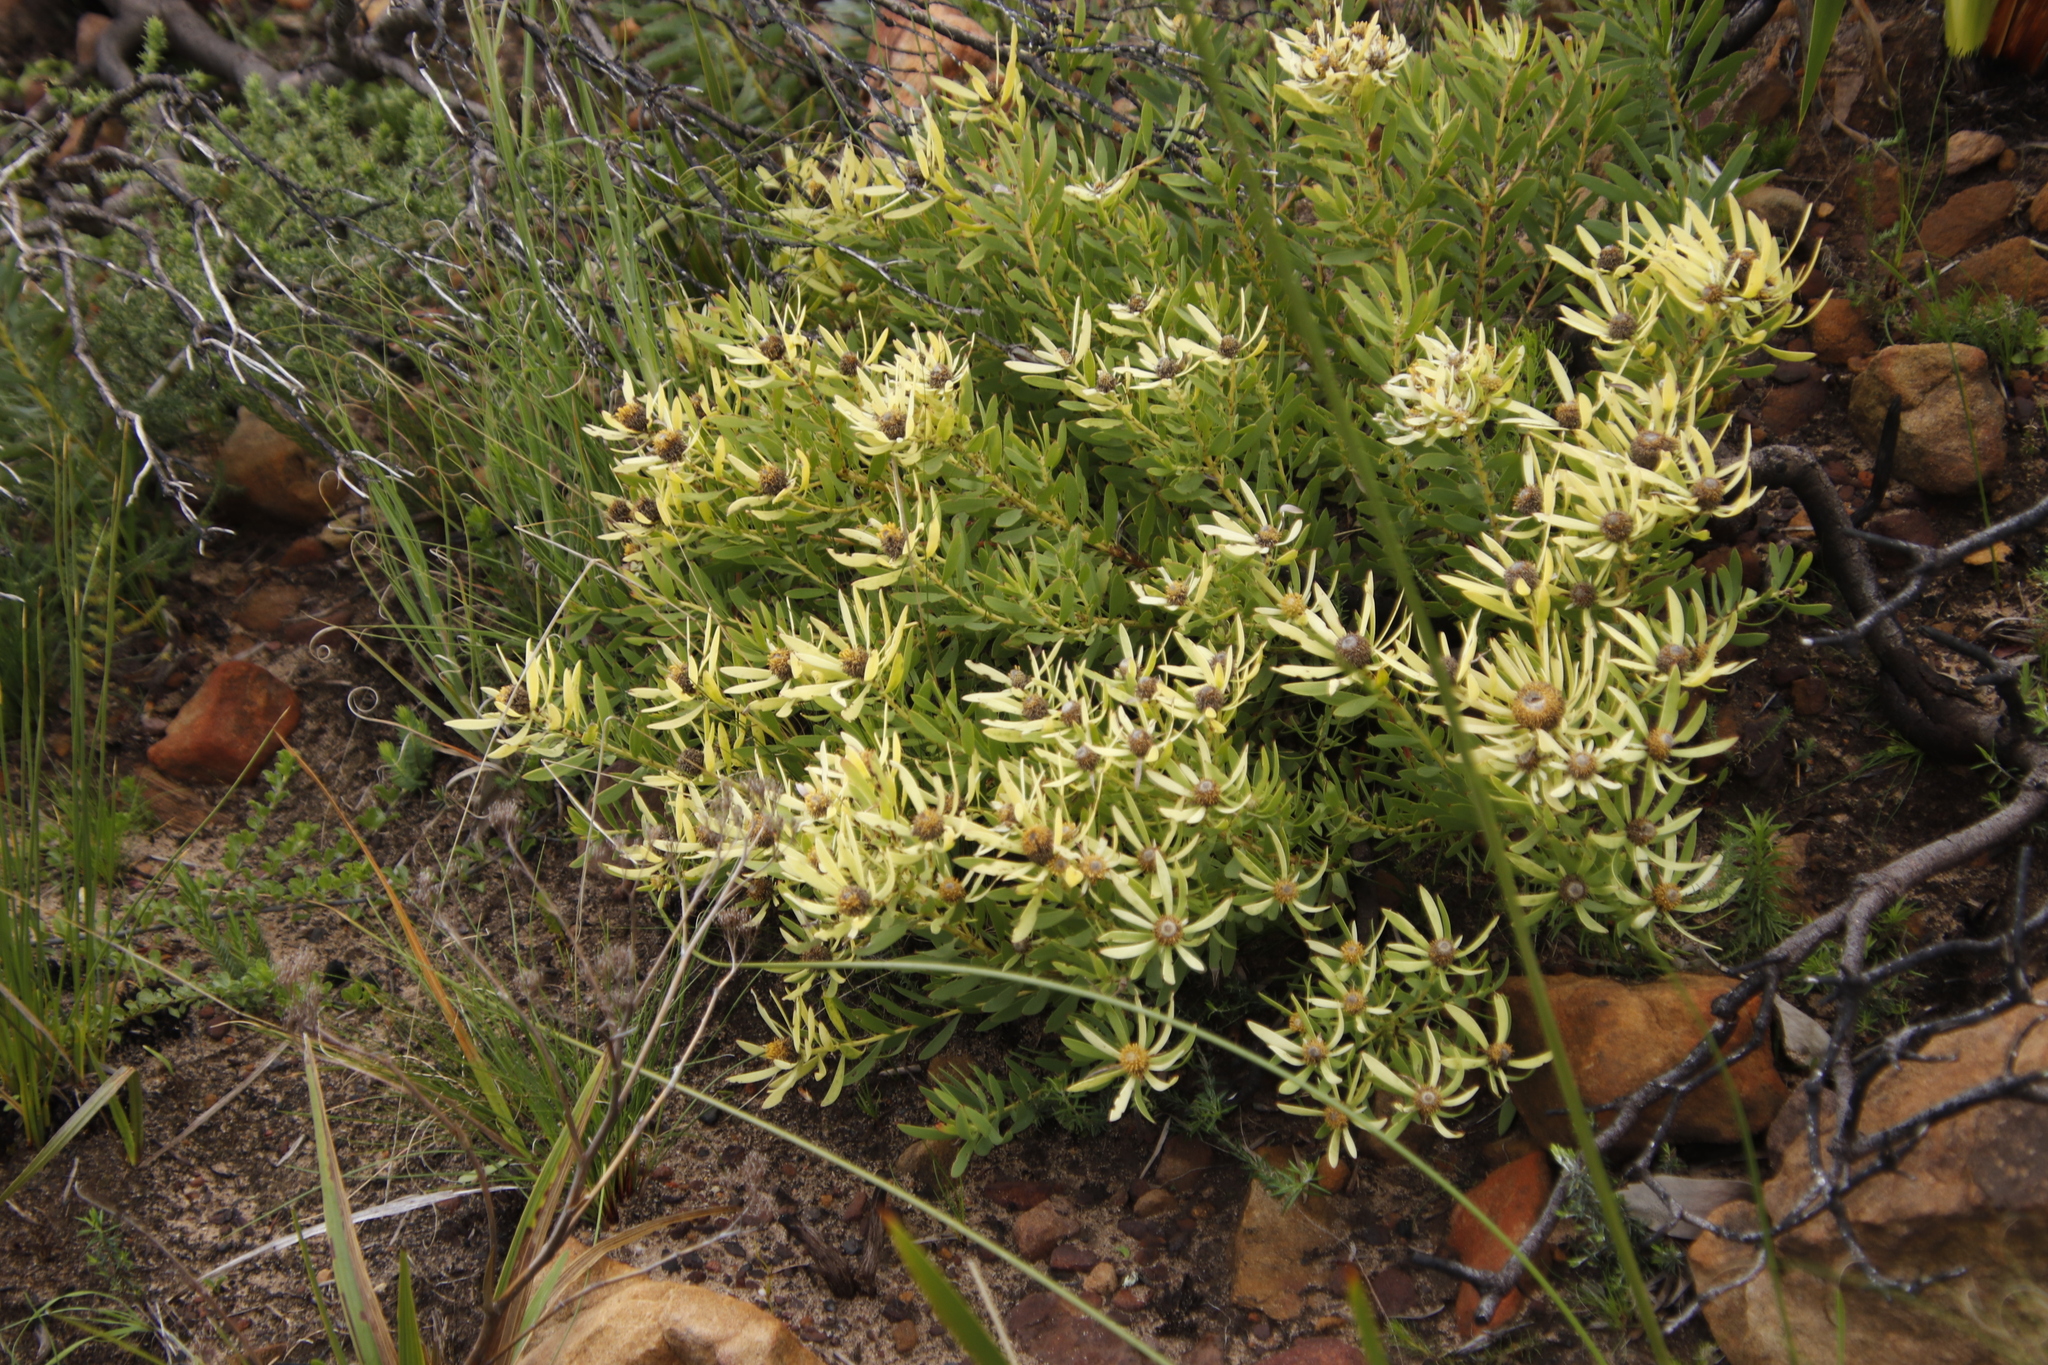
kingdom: Plantae
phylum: Tracheophyta
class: Magnoliopsida
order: Proteales
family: Proteaceae
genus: Leucadendron
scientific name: Leucadendron salignum
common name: Common sunshine conebush
